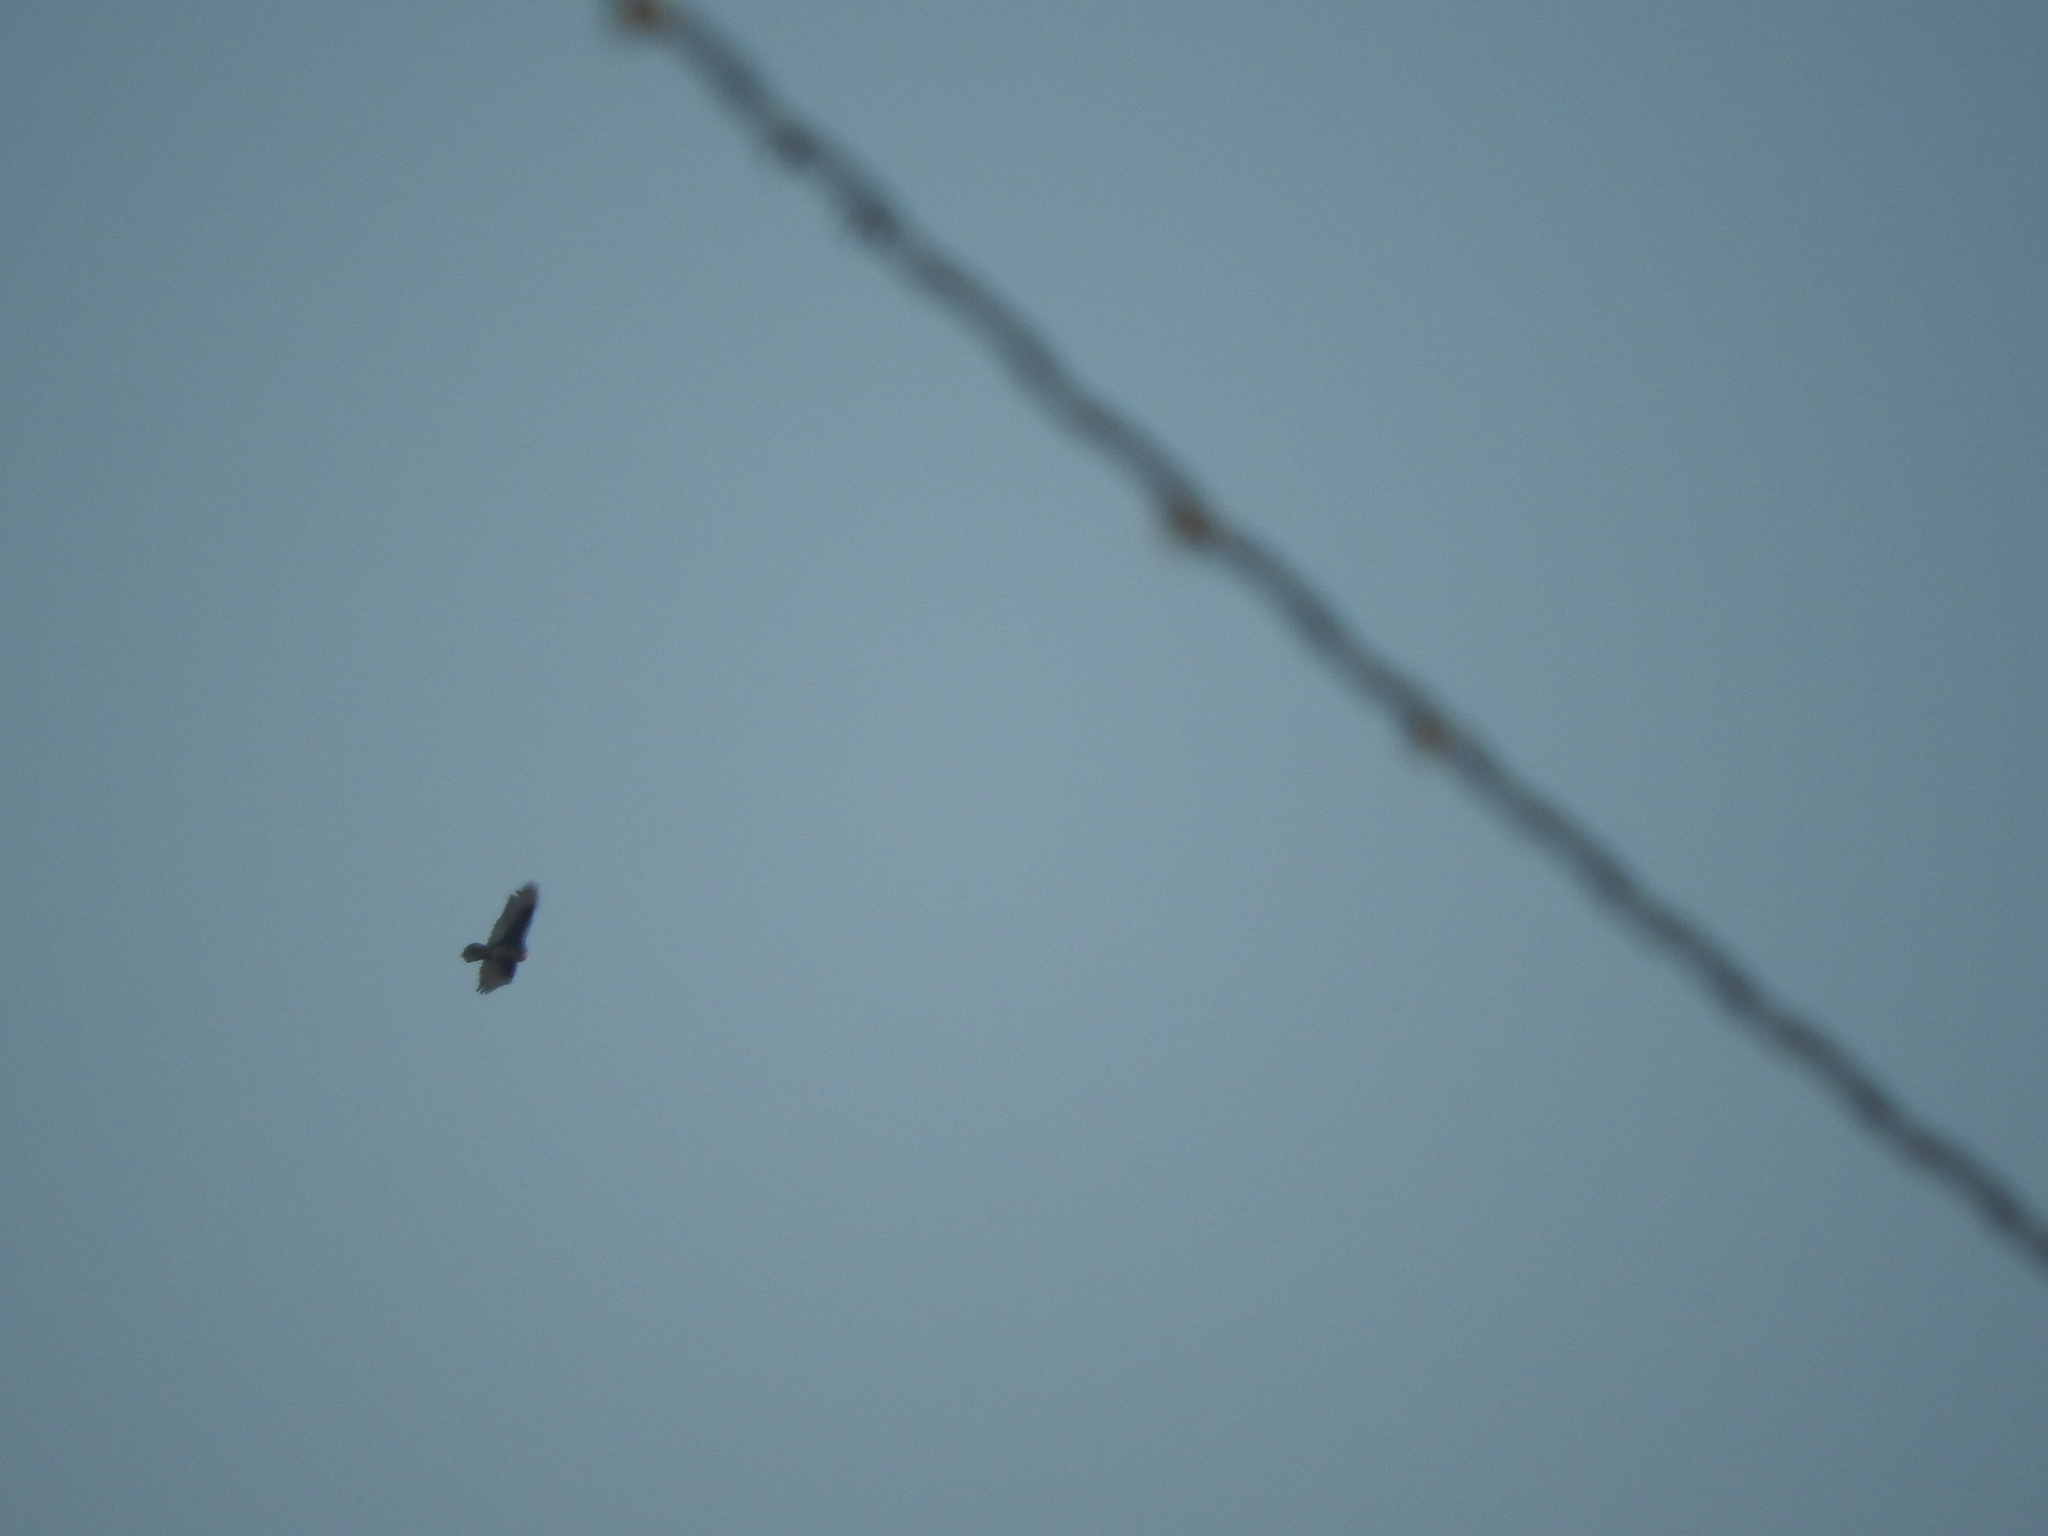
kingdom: Animalia
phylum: Chordata
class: Aves
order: Accipitriformes
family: Cathartidae
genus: Cathartes
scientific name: Cathartes aura
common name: Turkey vulture
